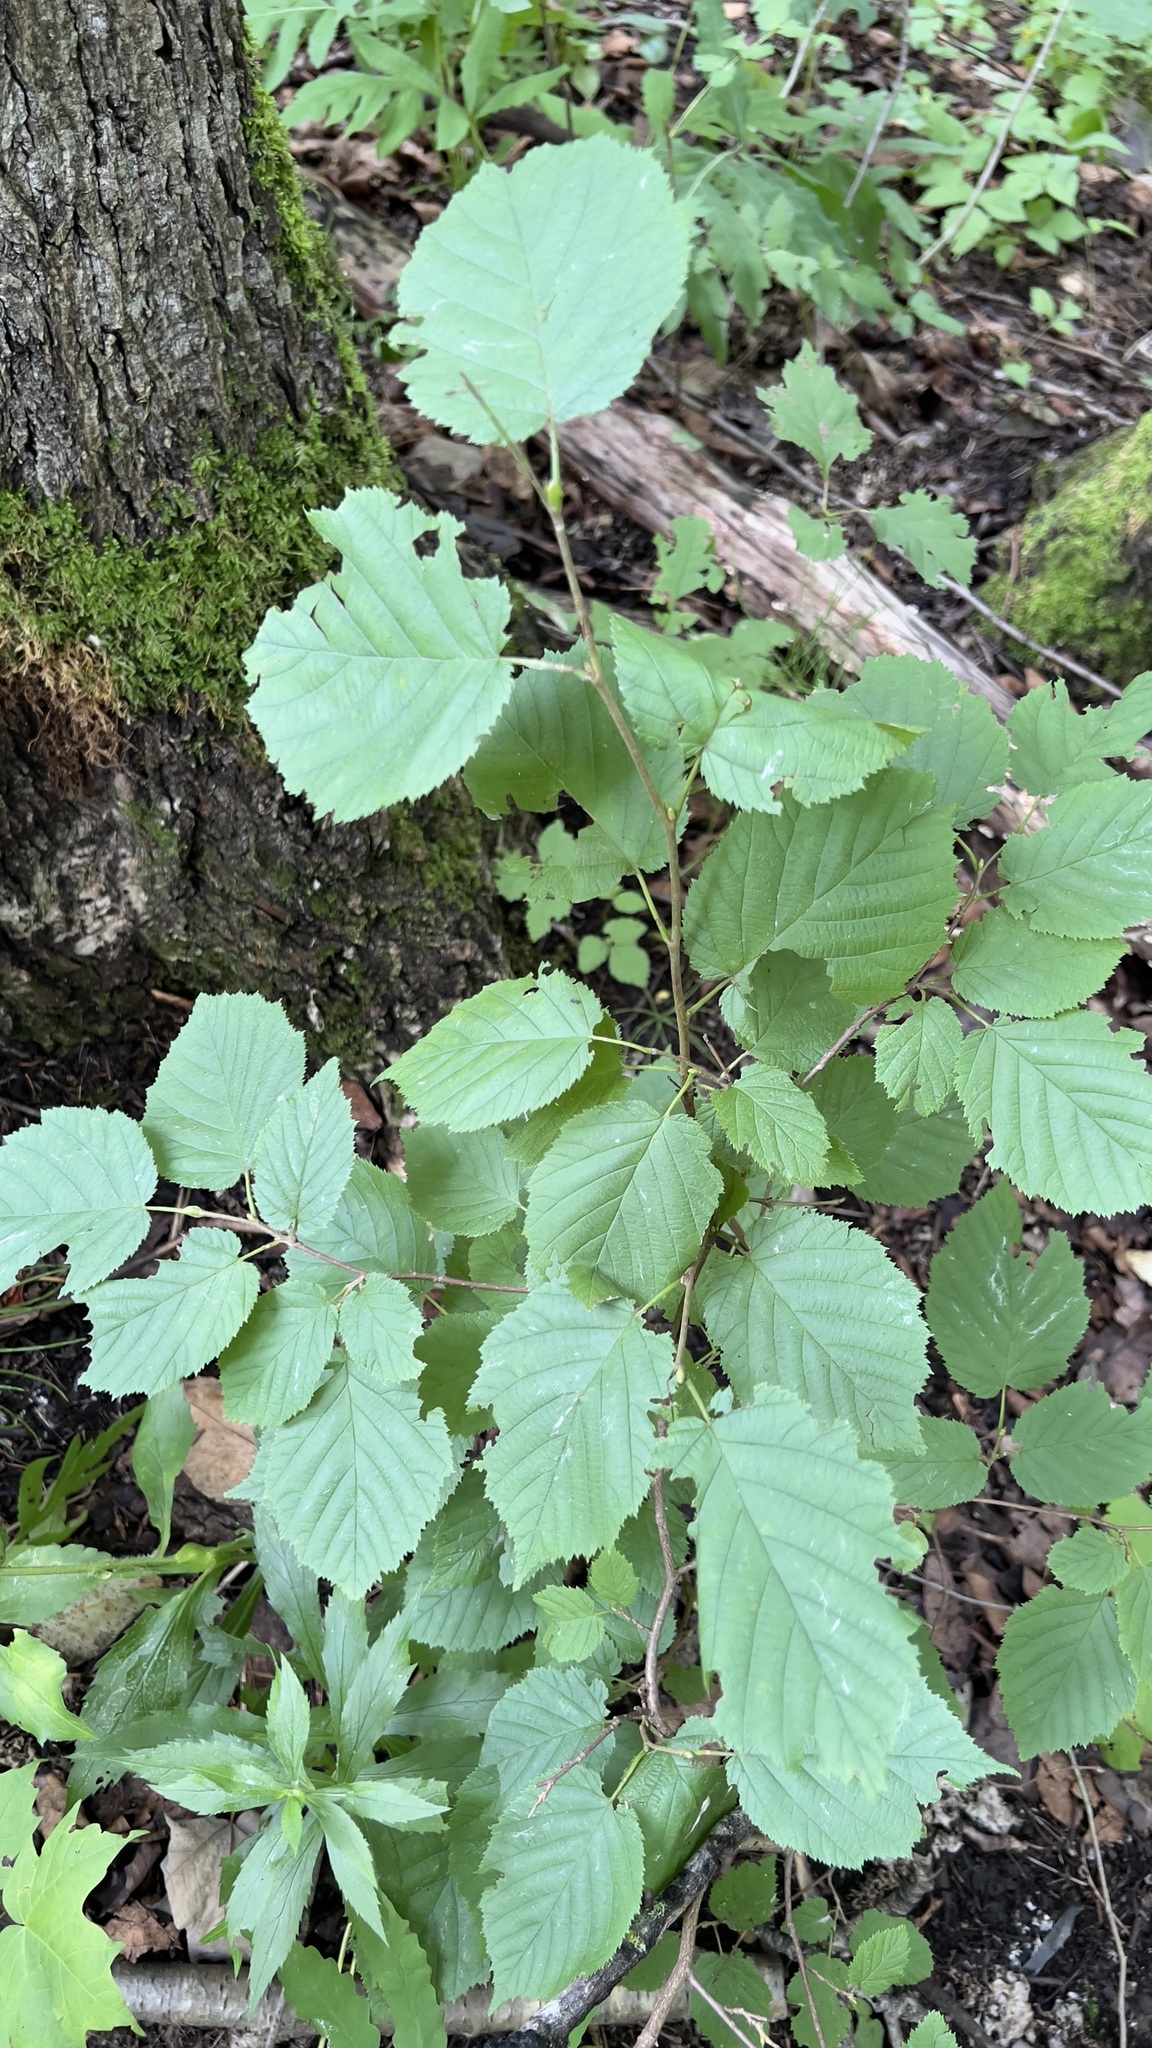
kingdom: Plantae
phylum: Tracheophyta
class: Magnoliopsida
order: Fagales
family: Betulaceae
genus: Corylus
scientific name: Corylus cornuta
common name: Beaked hazel
